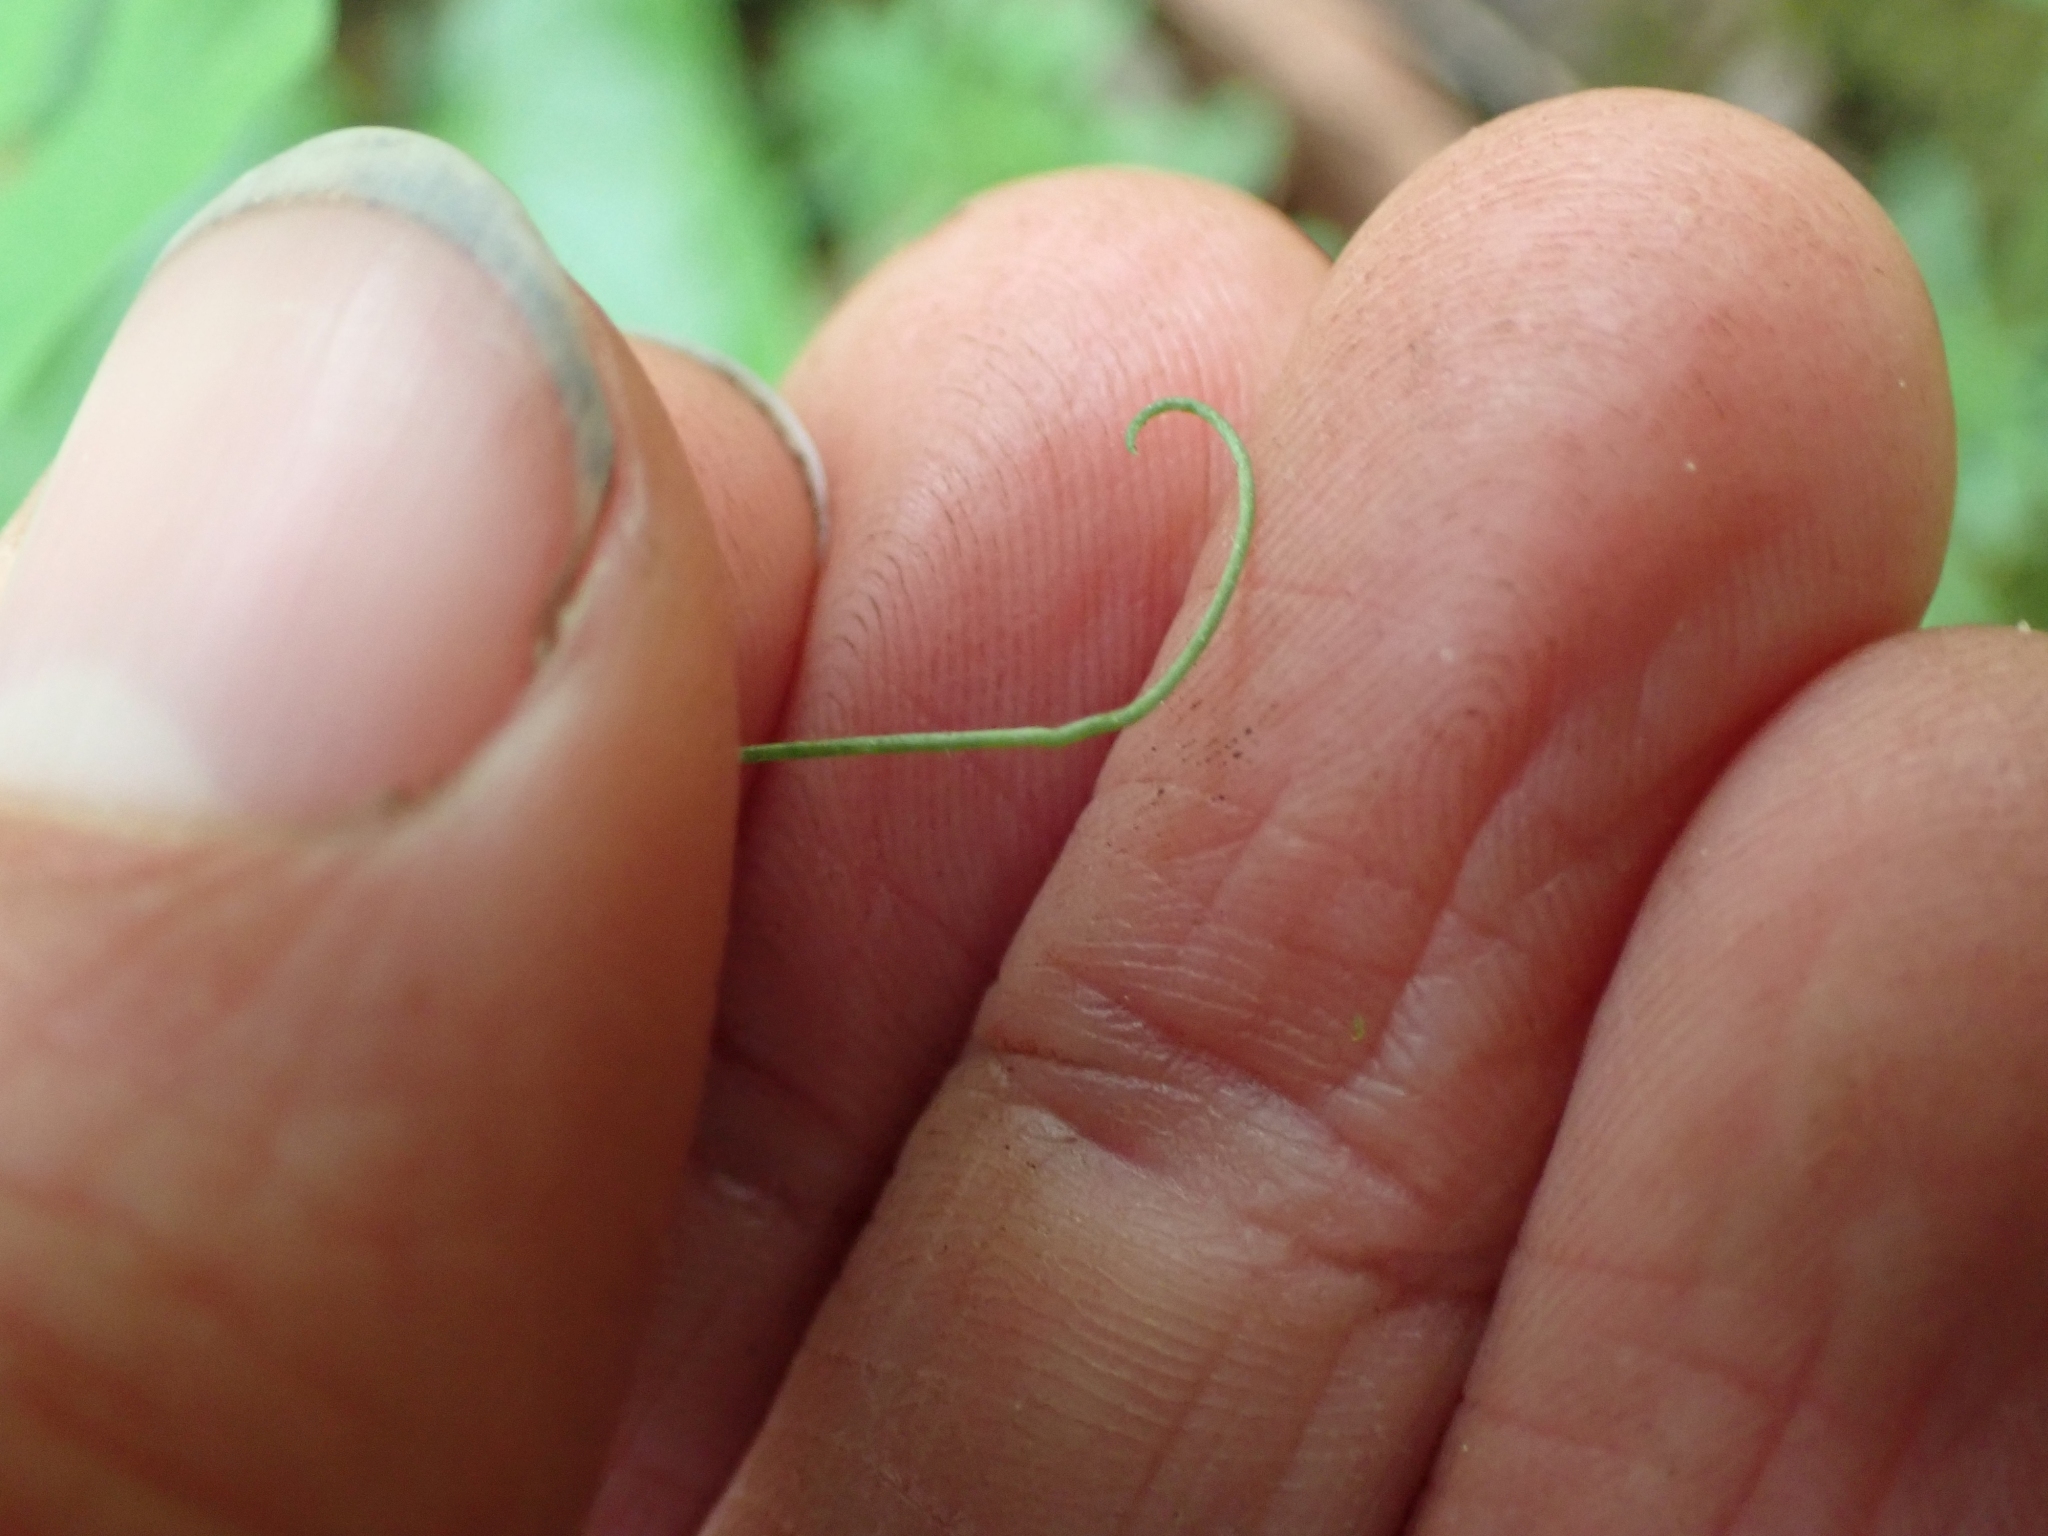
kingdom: Plantae
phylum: Tracheophyta
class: Magnoliopsida
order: Fabales
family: Fabaceae
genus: Lathyrus
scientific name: Lathyrus nevadensis
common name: Sierra nevada peavine
